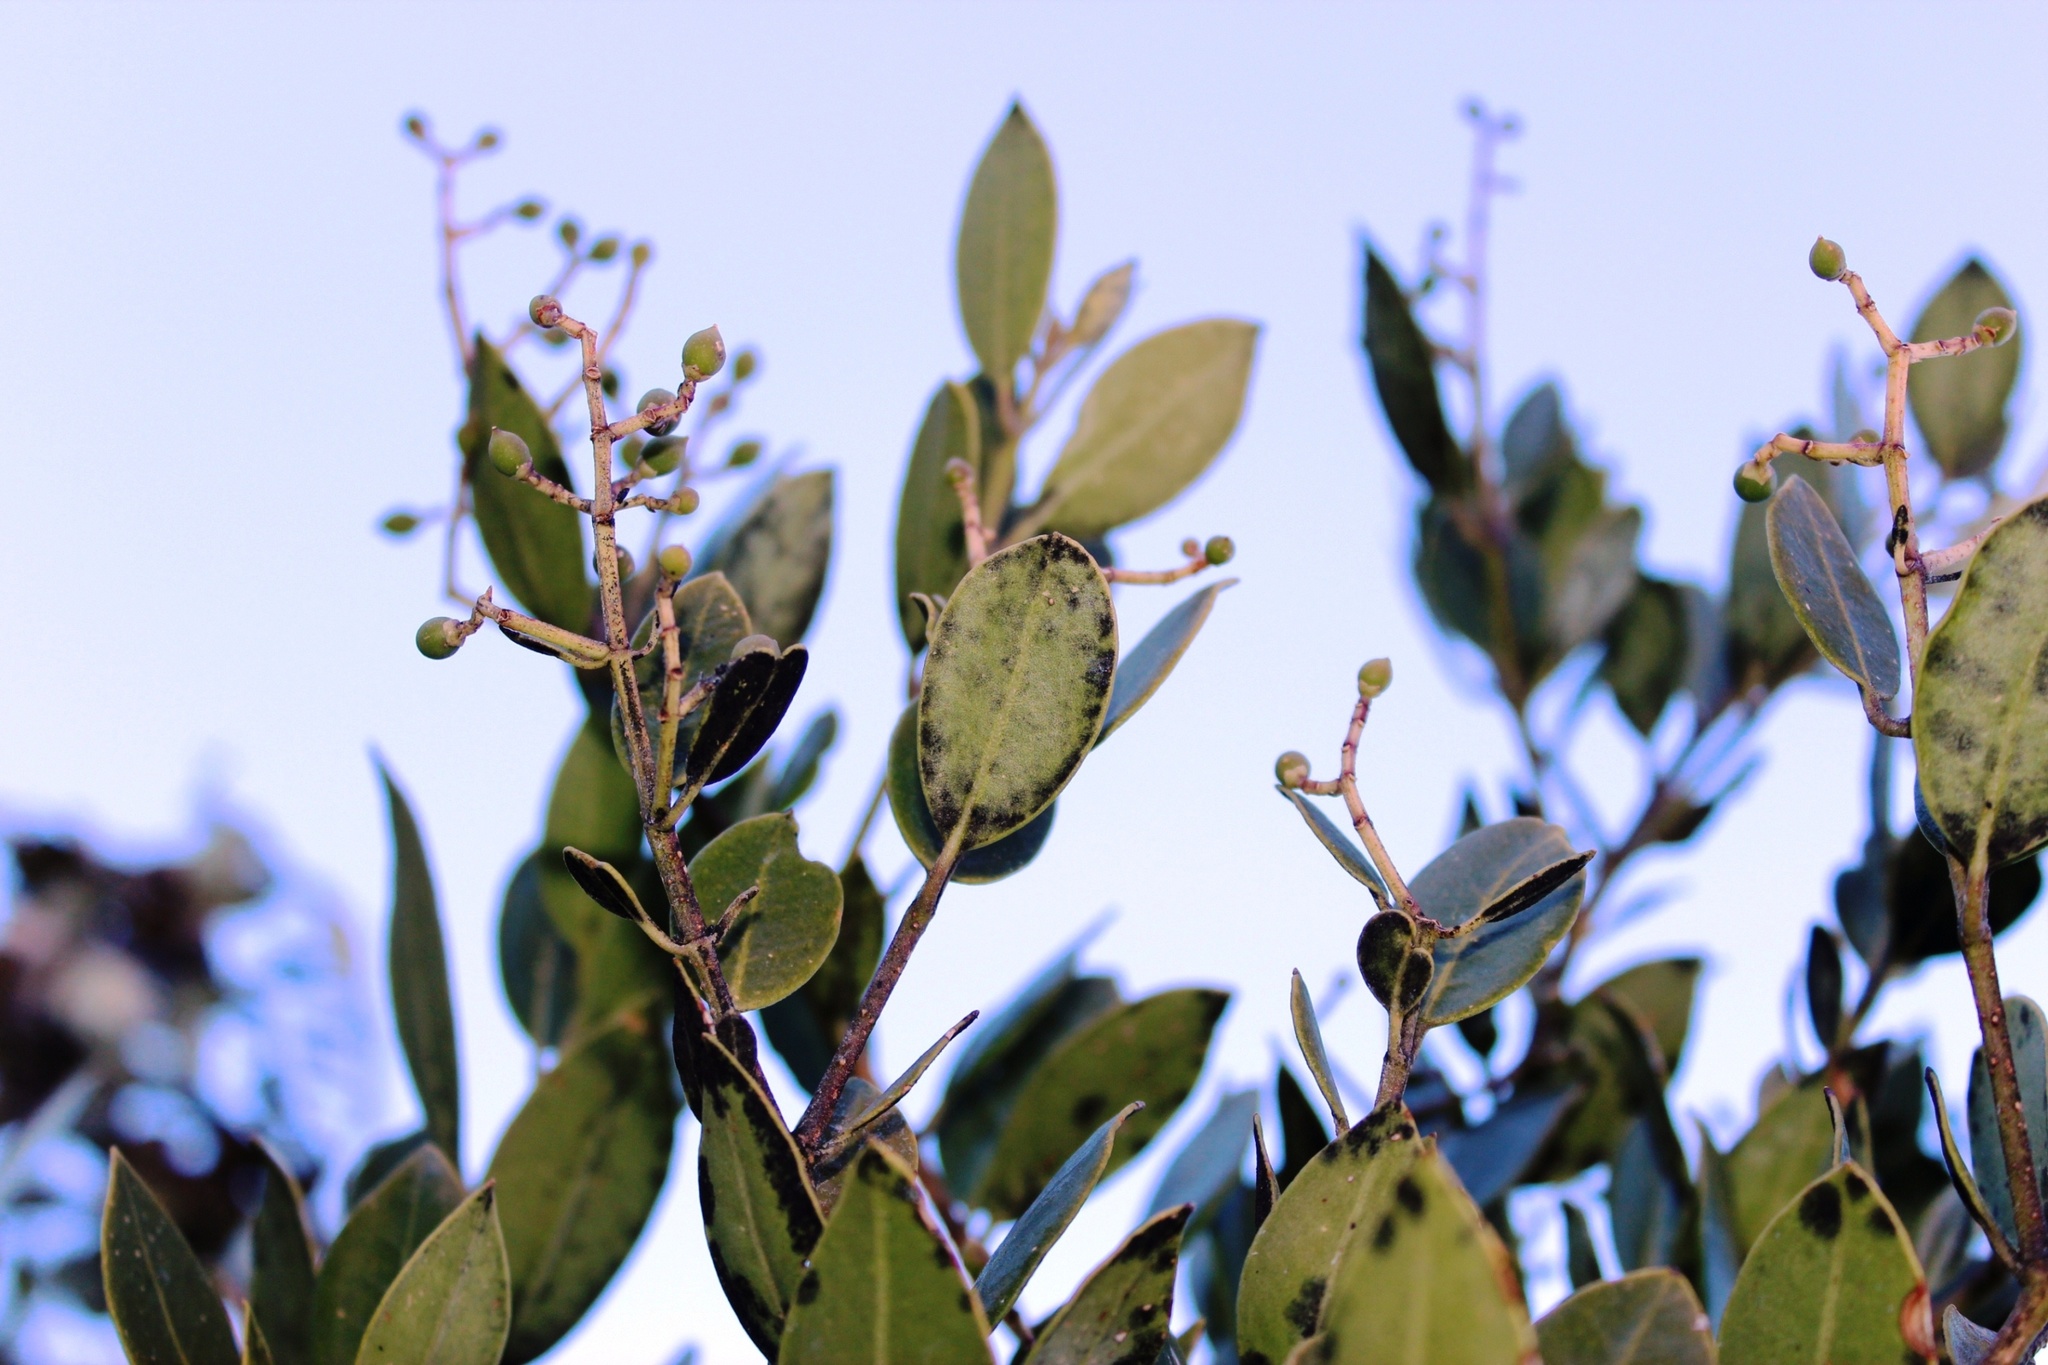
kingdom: Plantae
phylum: Tracheophyta
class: Magnoliopsida
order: Lamiales
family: Oleaceae
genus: Olea
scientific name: Olea capensis
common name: Black ironwood
